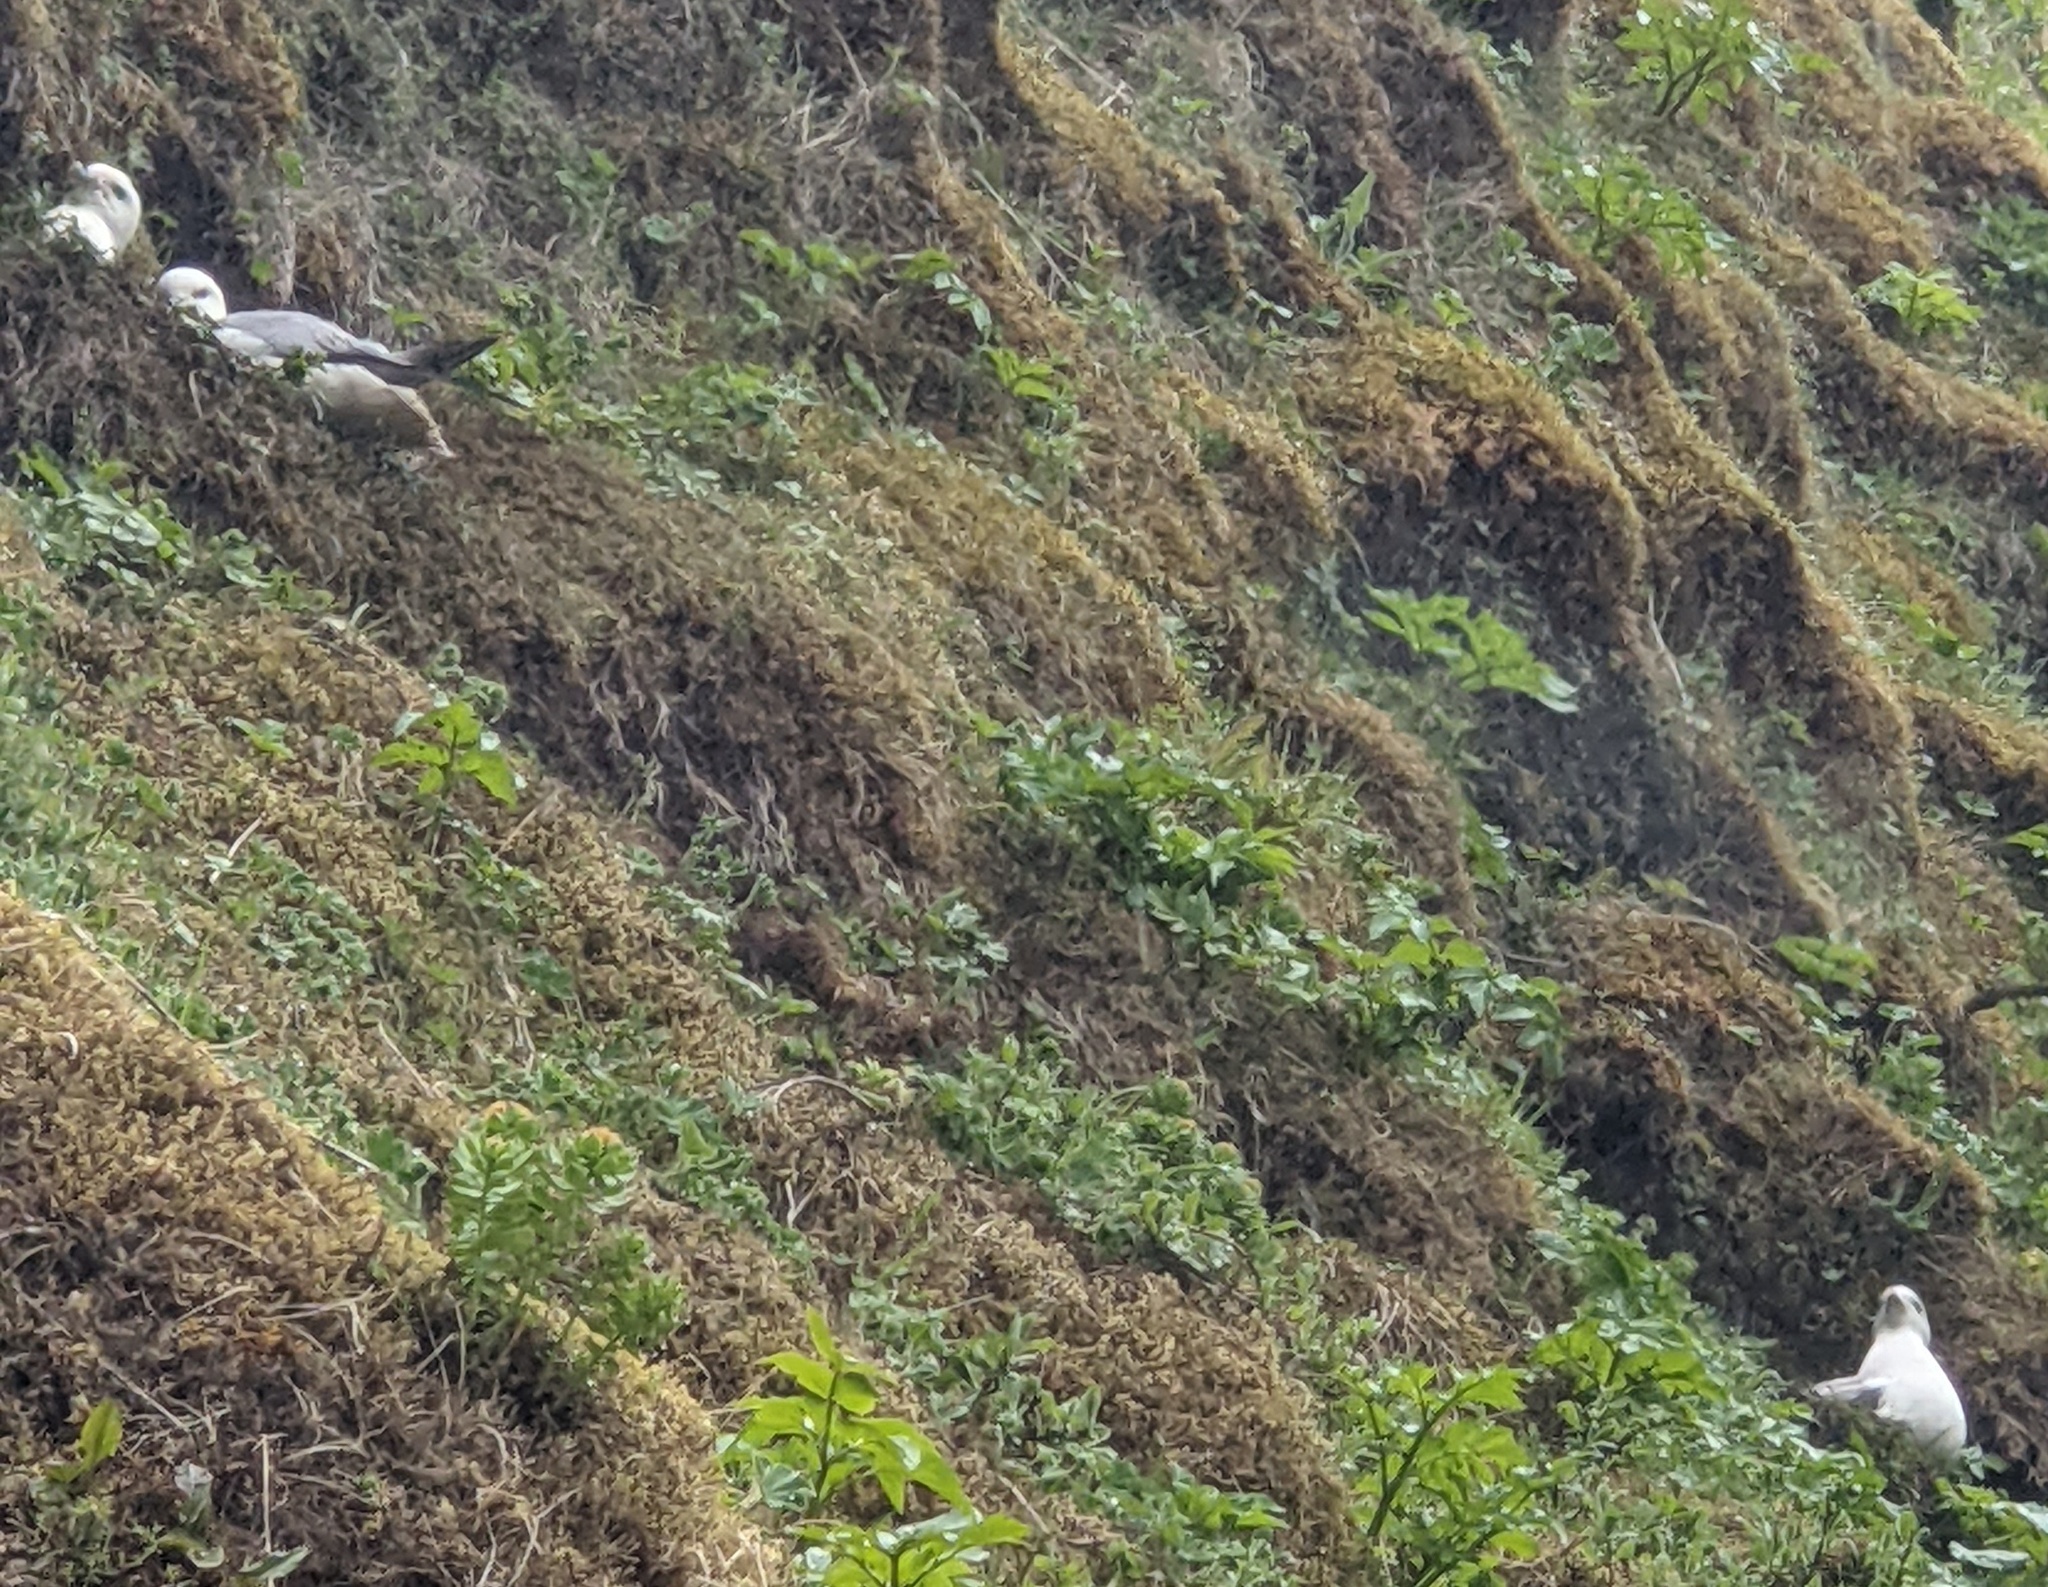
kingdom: Animalia
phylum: Chordata
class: Aves
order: Procellariiformes
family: Procellariidae
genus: Fulmarus
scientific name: Fulmarus glacialis
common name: Northern fulmar
